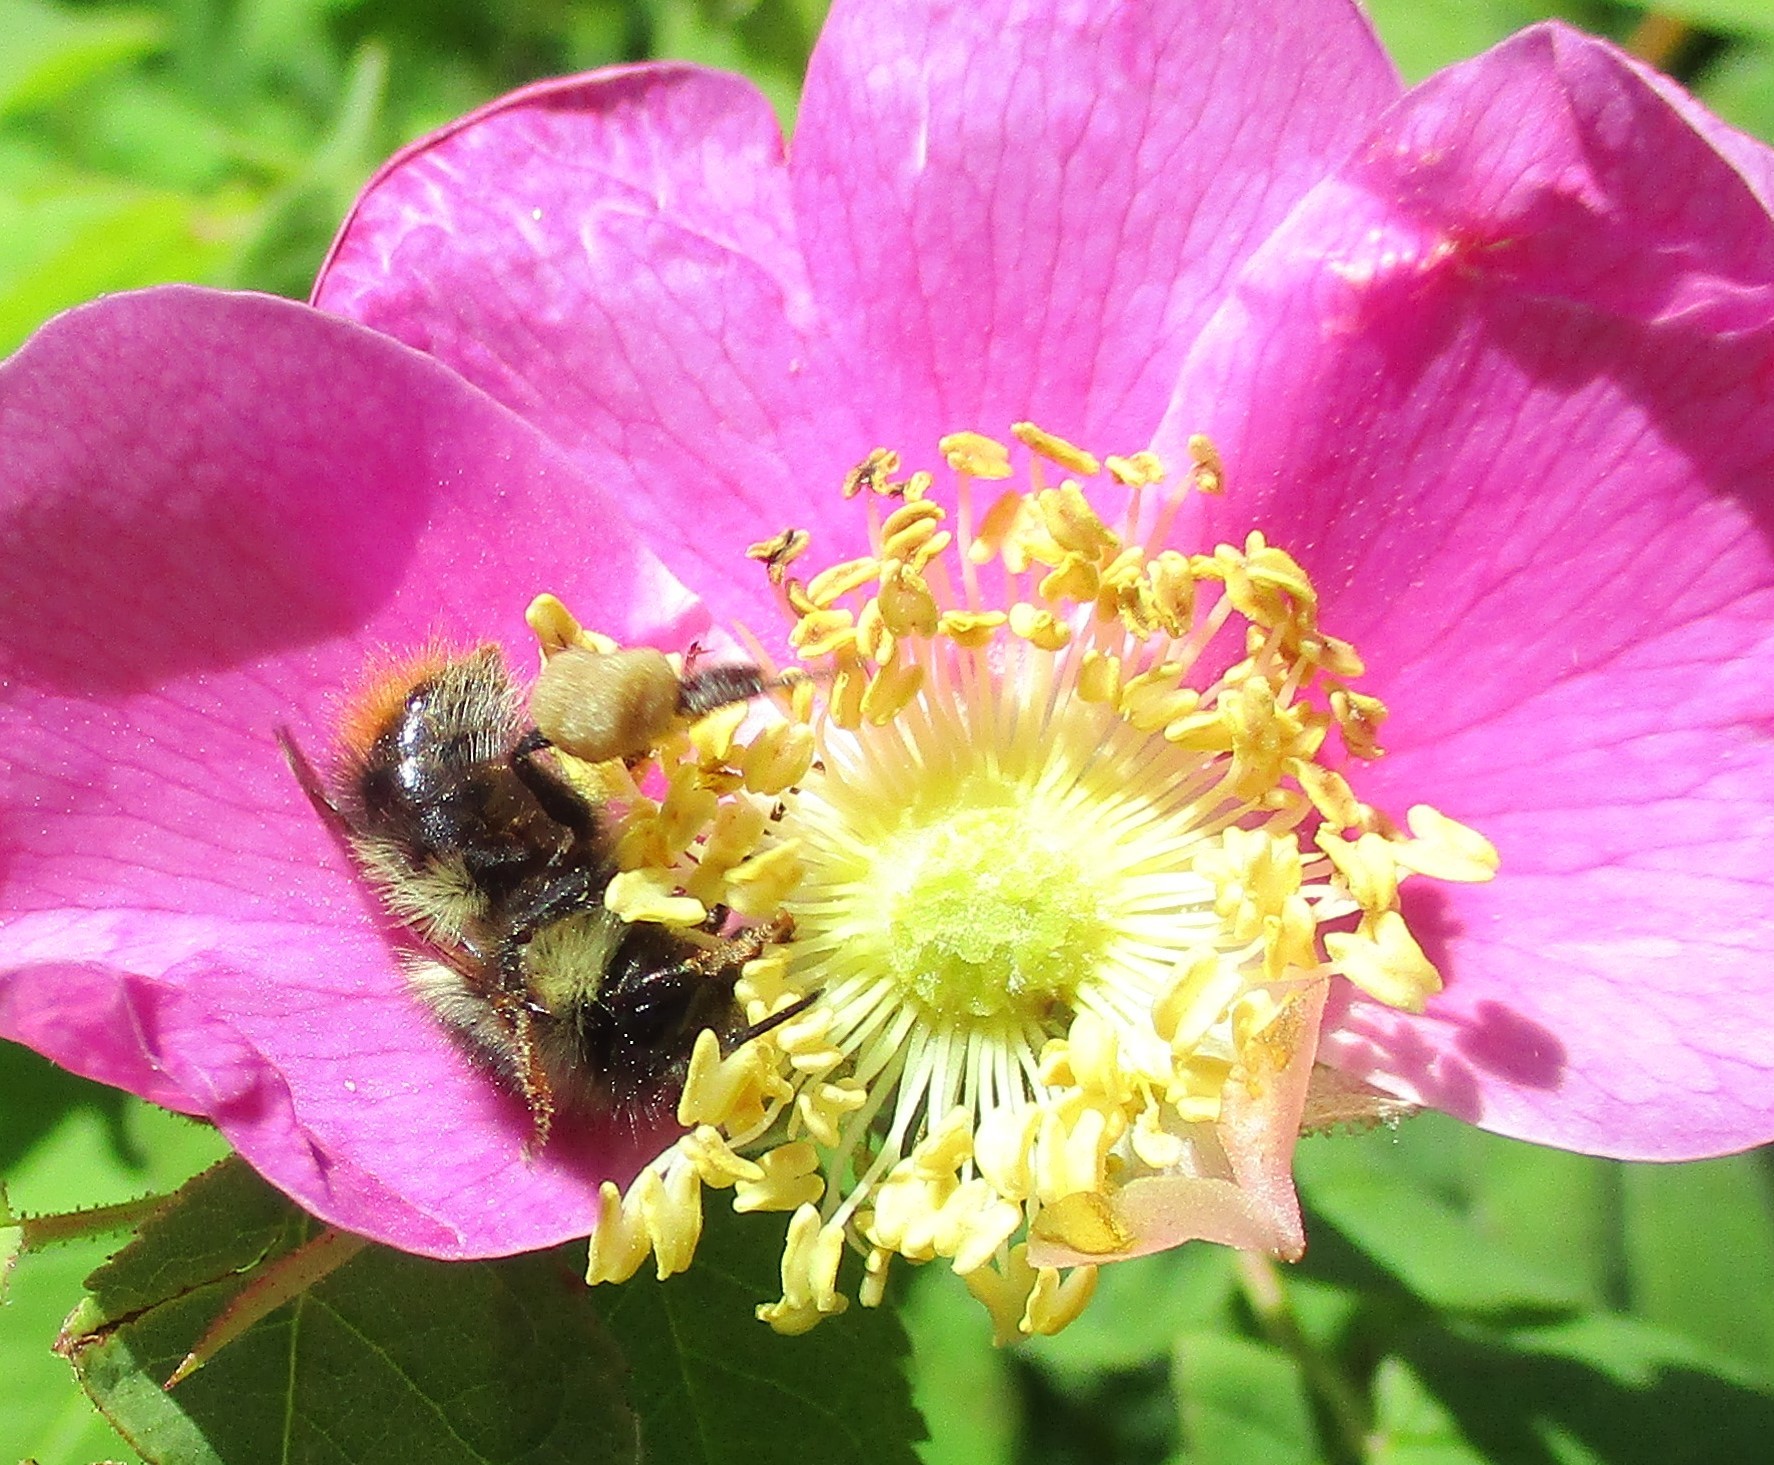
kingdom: Animalia
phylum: Arthropoda
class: Insecta
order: Hymenoptera
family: Apidae
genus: Bombus
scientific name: Bombus mixtus
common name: Fuzzy-horned bumble bee
